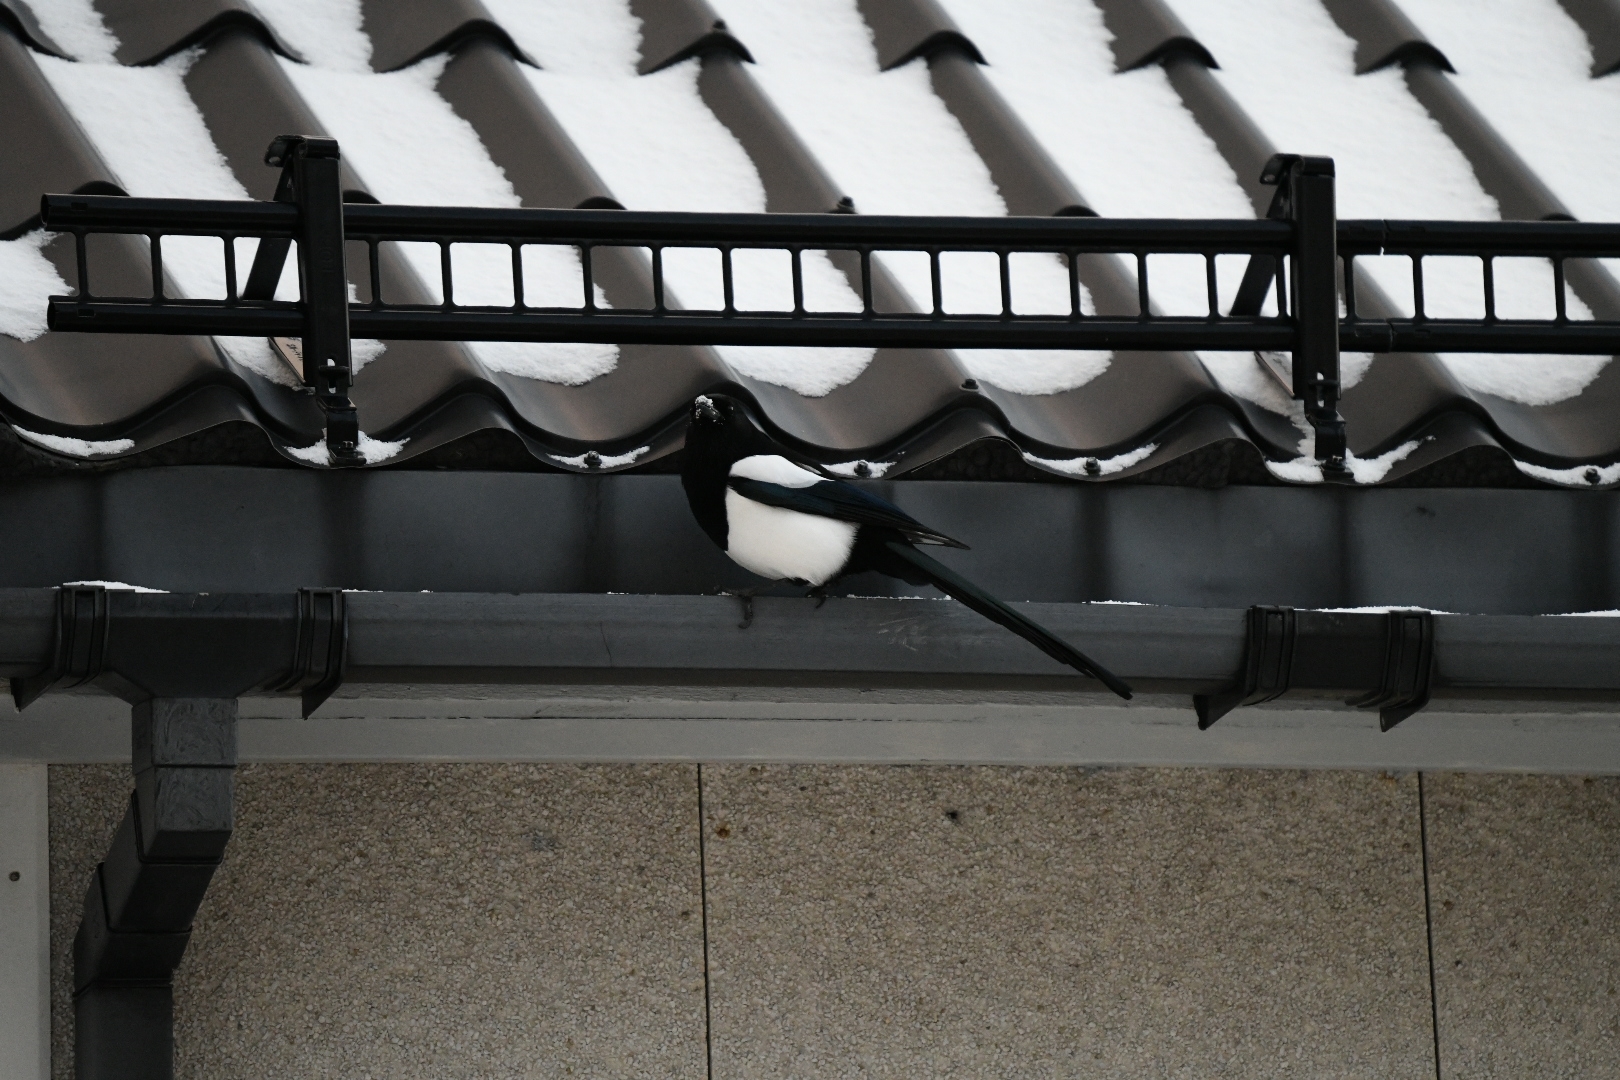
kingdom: Animalia
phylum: Chordata
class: Aves
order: Passeriformes
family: Corvidae
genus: Pica
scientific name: Pica pica
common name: Eurasian magpie
